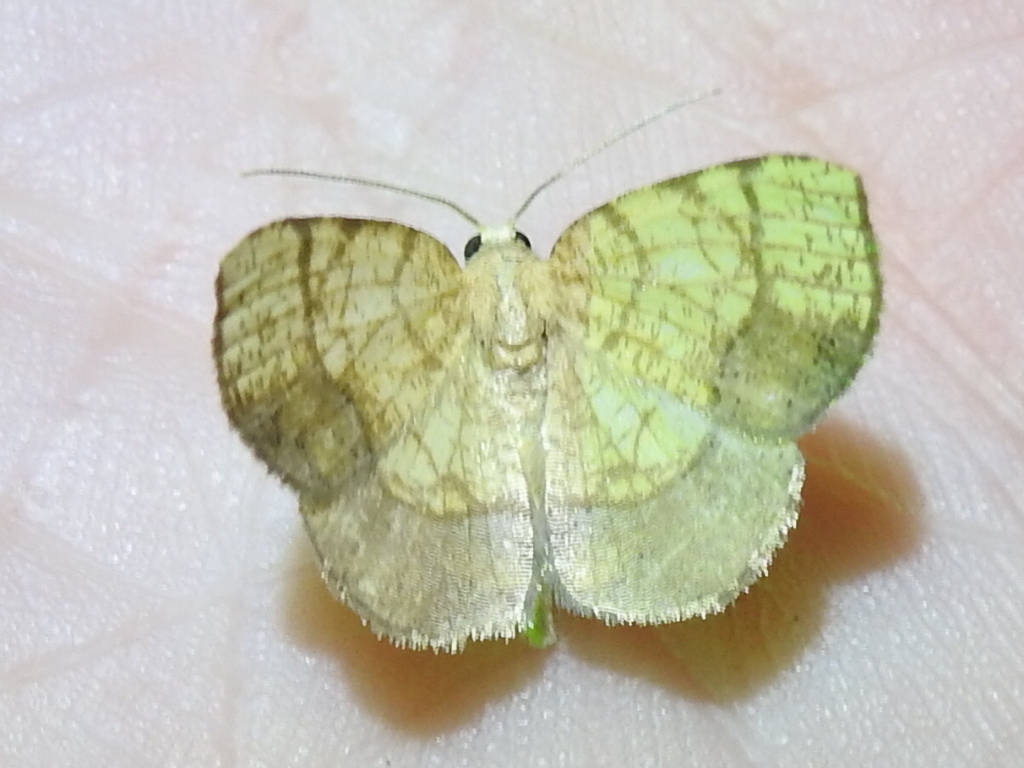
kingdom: Animalia
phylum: Arthropoda
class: Insecta
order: Lepidoptera
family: Geometridae
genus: Nematocampa
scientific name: Nematocampa resistaria
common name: Horned spanworm moth
